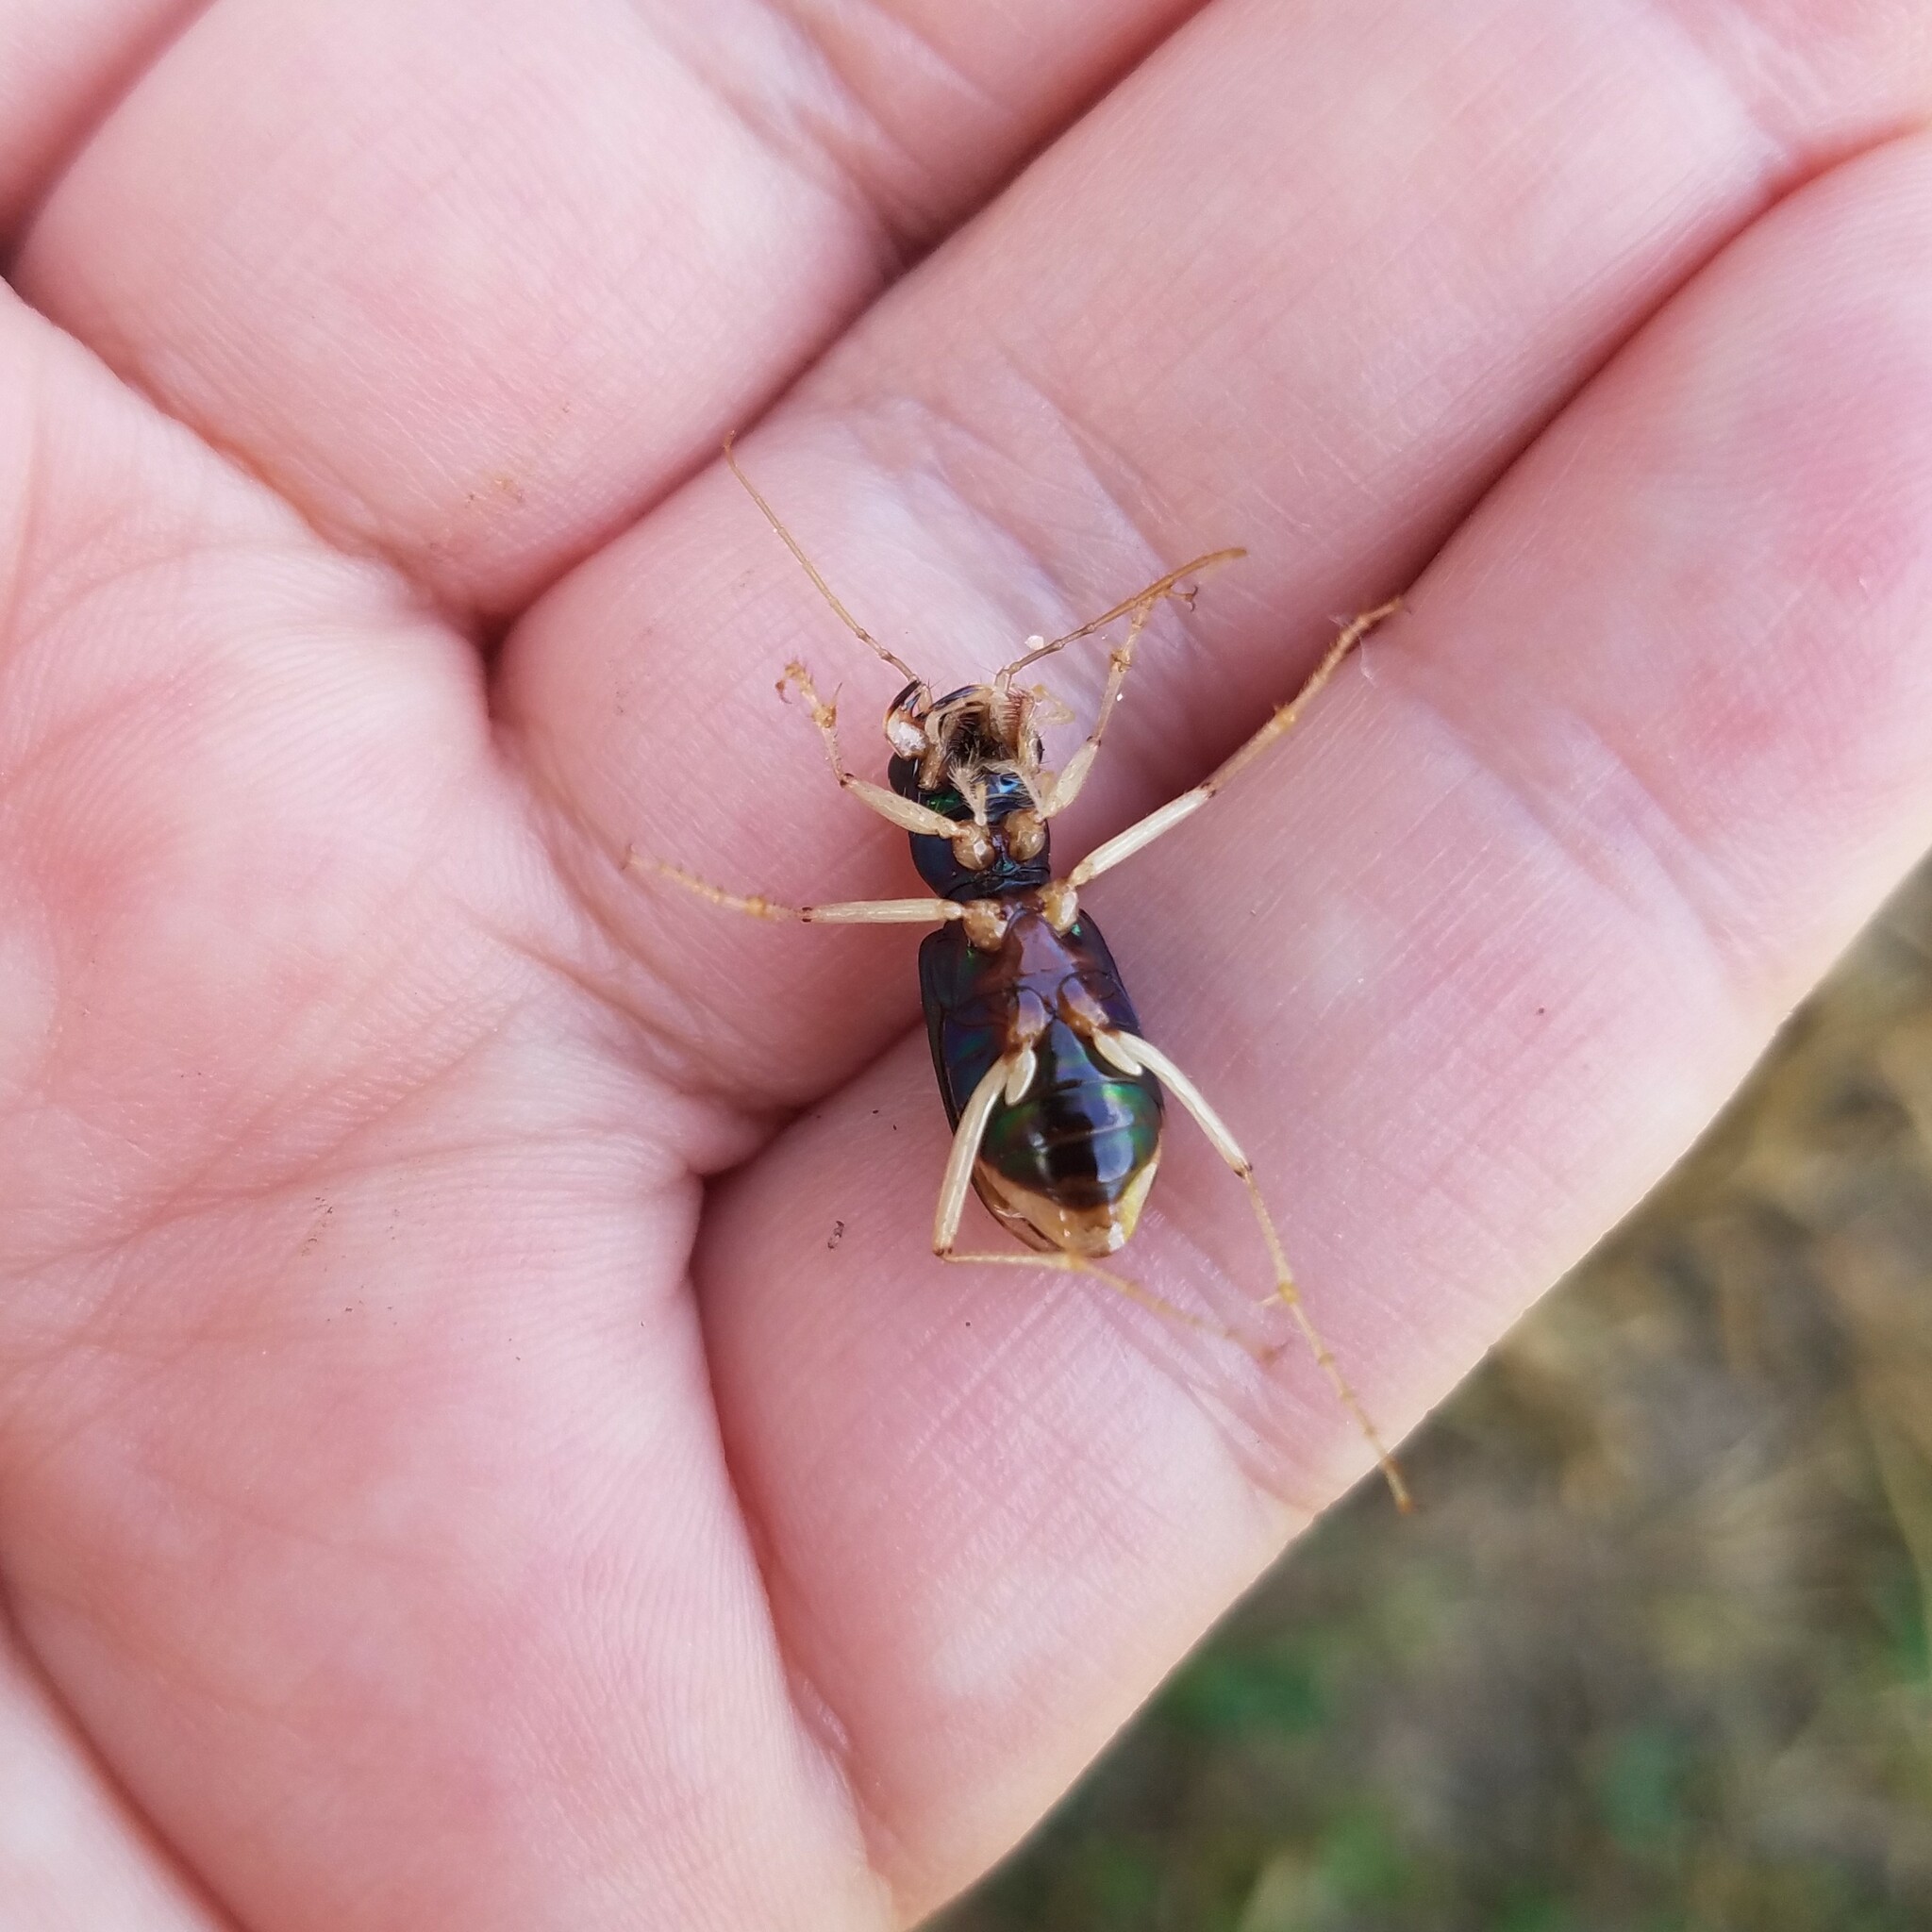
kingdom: Animalia
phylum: Arthropoda
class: Insecta
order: Coleoptera
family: Carabidae
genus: Tetracha
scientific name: Tetracha carolina
